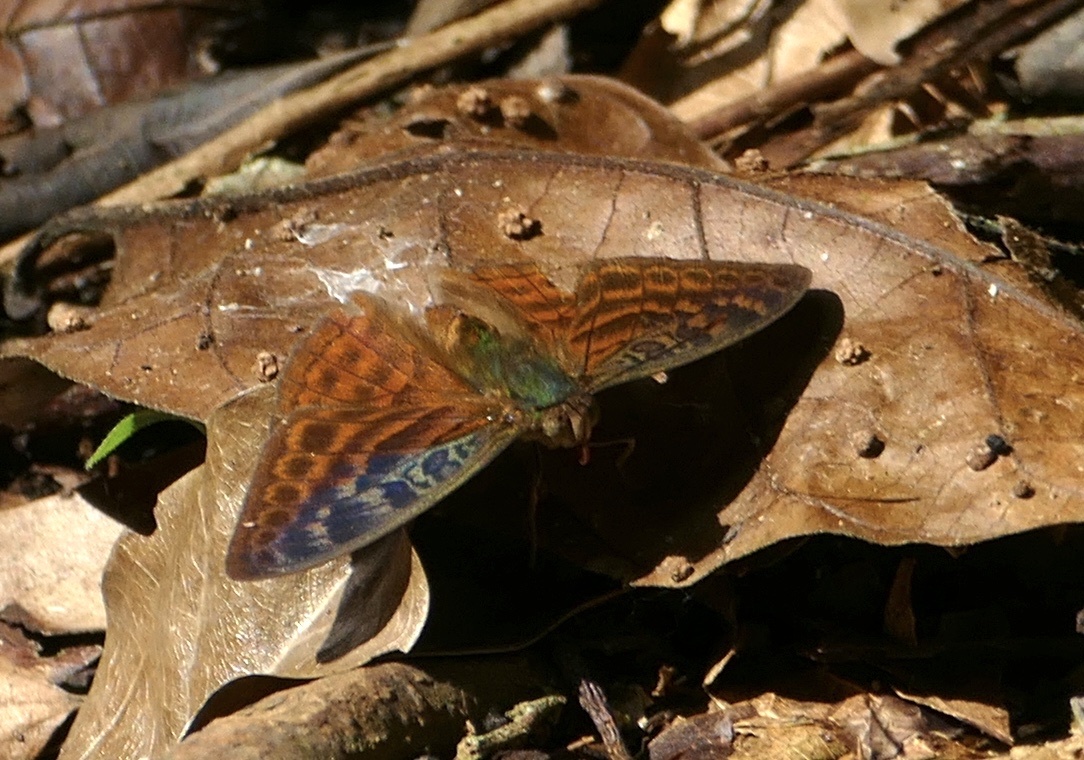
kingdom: Animalia
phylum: Arthropoda
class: Insecta
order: Lepidoptera
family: Nymphalidae
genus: Bebearia
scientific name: Bebearia tentyris
